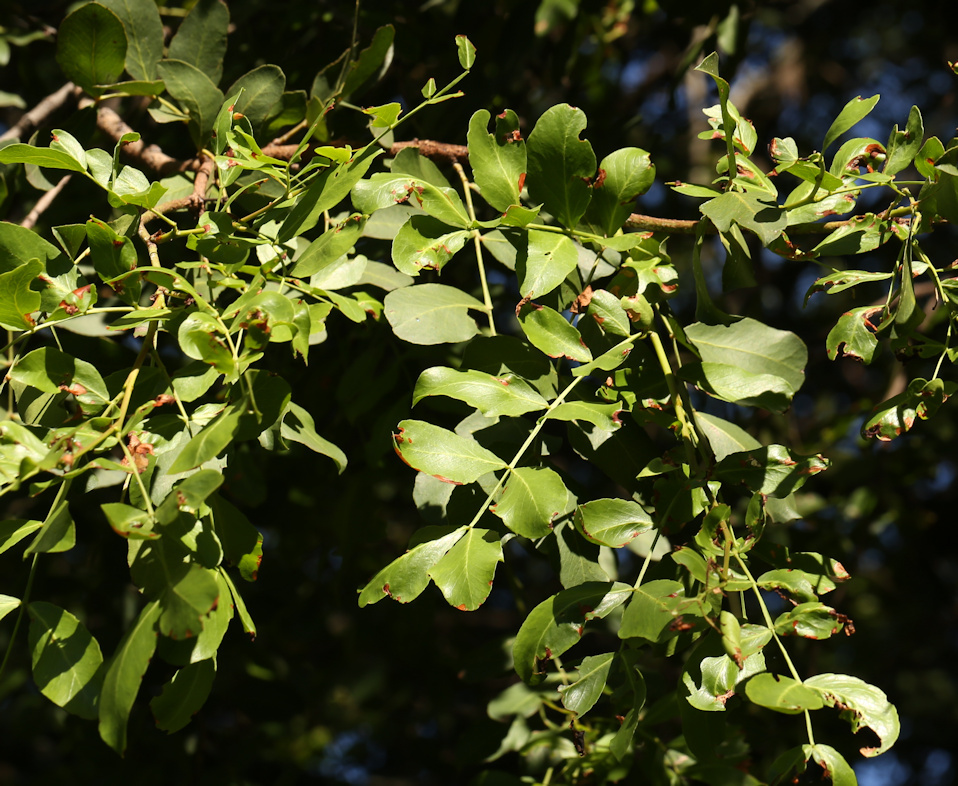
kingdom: Plantae
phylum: Tracheophyta
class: Magnoliopsida
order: Fabales
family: Fabaceae
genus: Schotia
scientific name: Schotia brachypetala
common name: Weeping boer-bean
